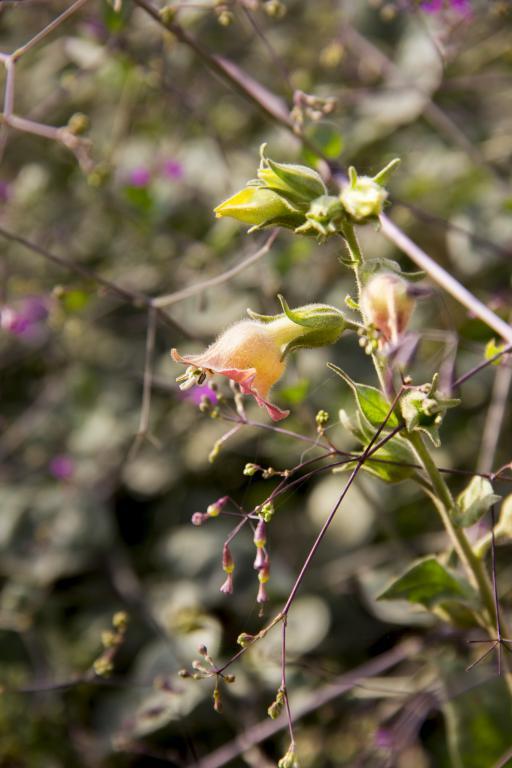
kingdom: Plantae
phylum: Tracheophyta
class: Magnoliopsida
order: Solanales
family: Solanaceae
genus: Nicotiana
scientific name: Nicotiana glutinosa
